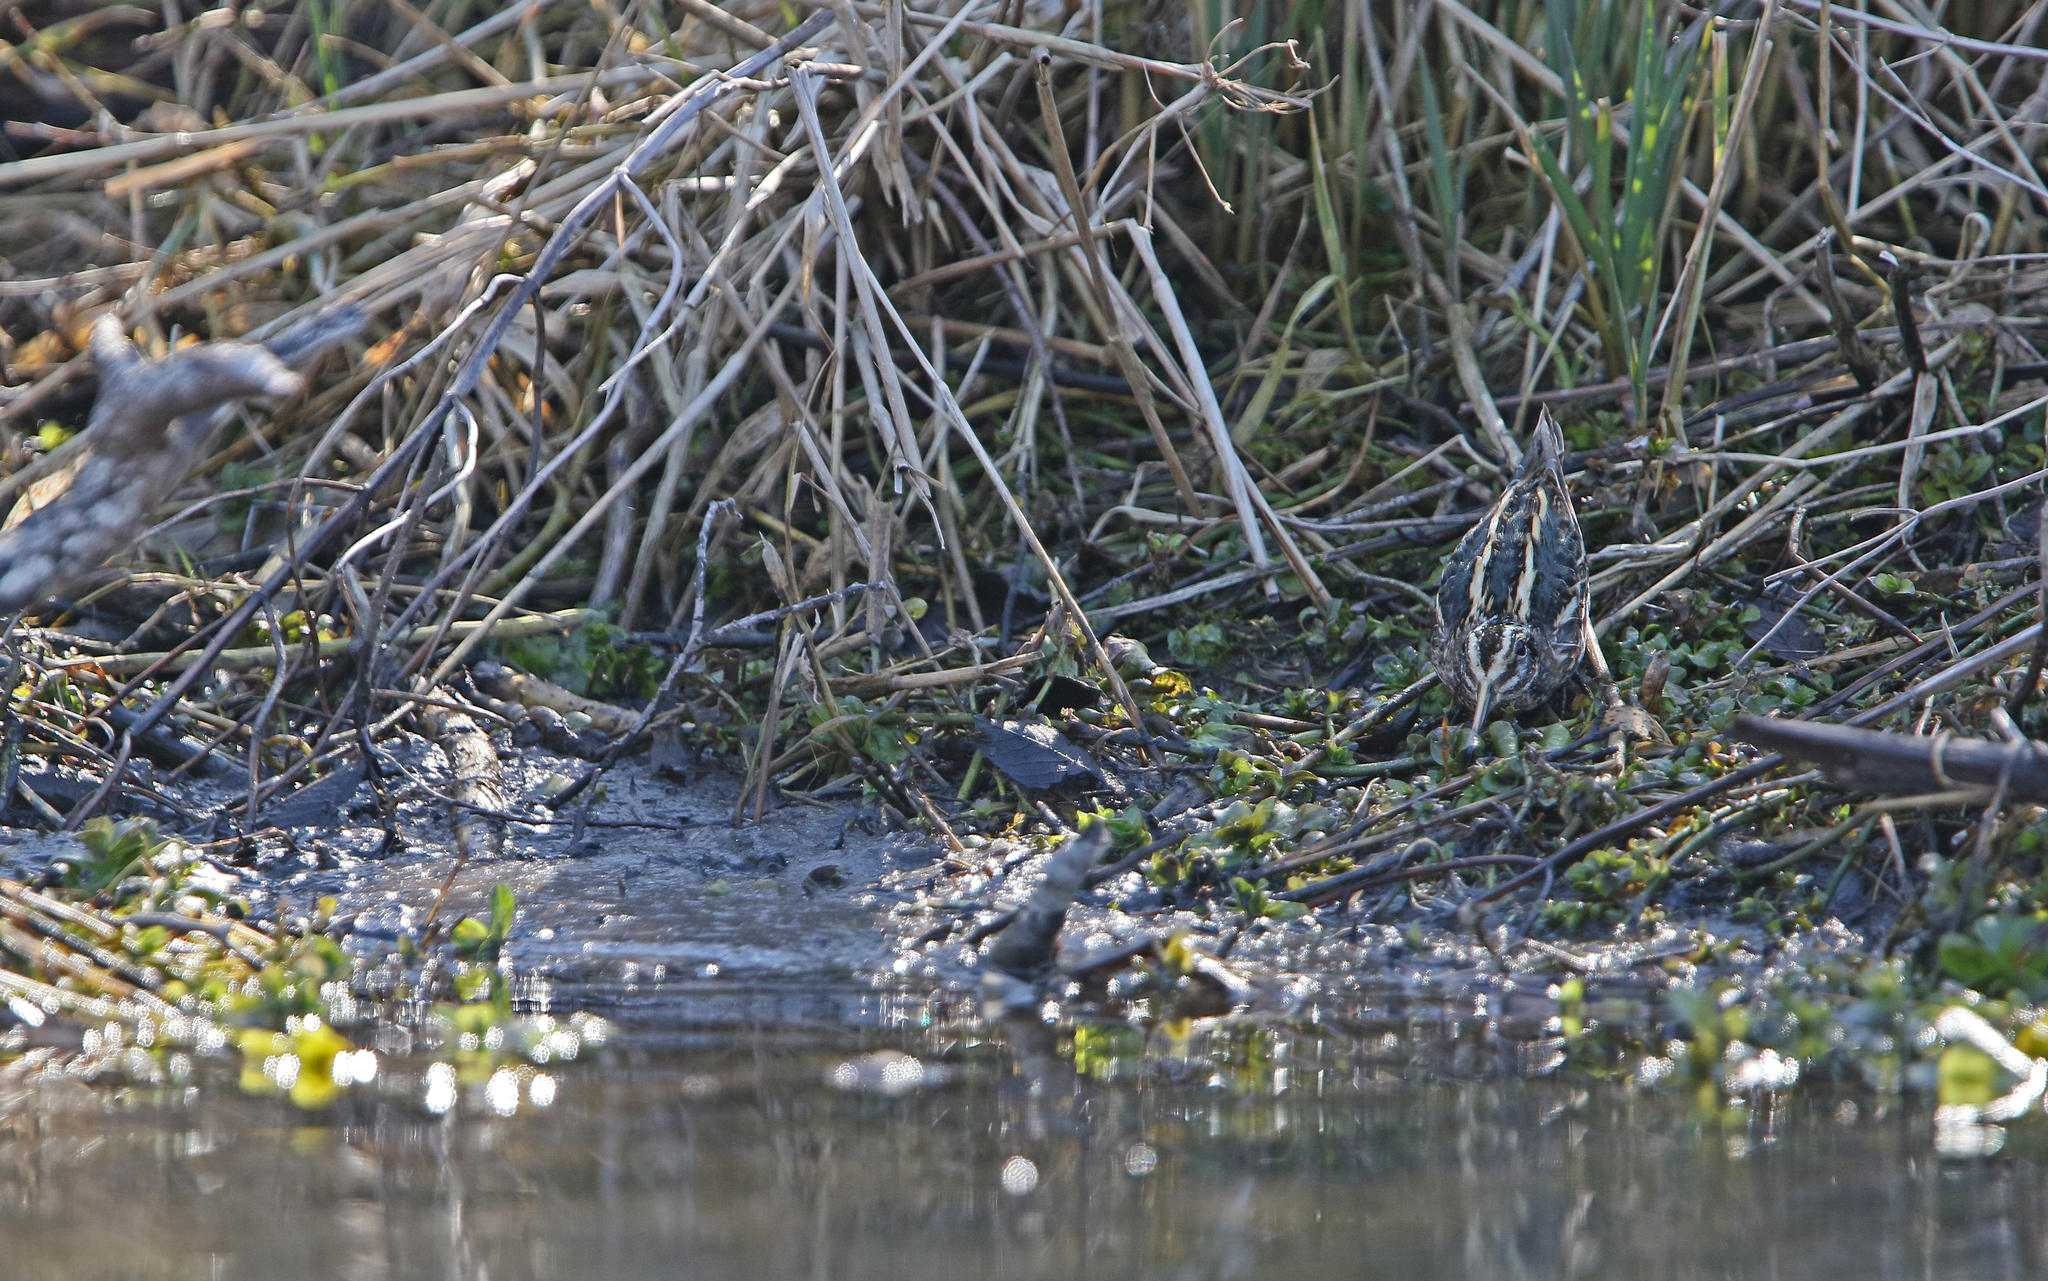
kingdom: Animalia
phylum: Chordata
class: Aves
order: Charadriiformes
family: Scolopacidae
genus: Lymnocryptes
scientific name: Lymnocryptes minimus
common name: Jack snipe
